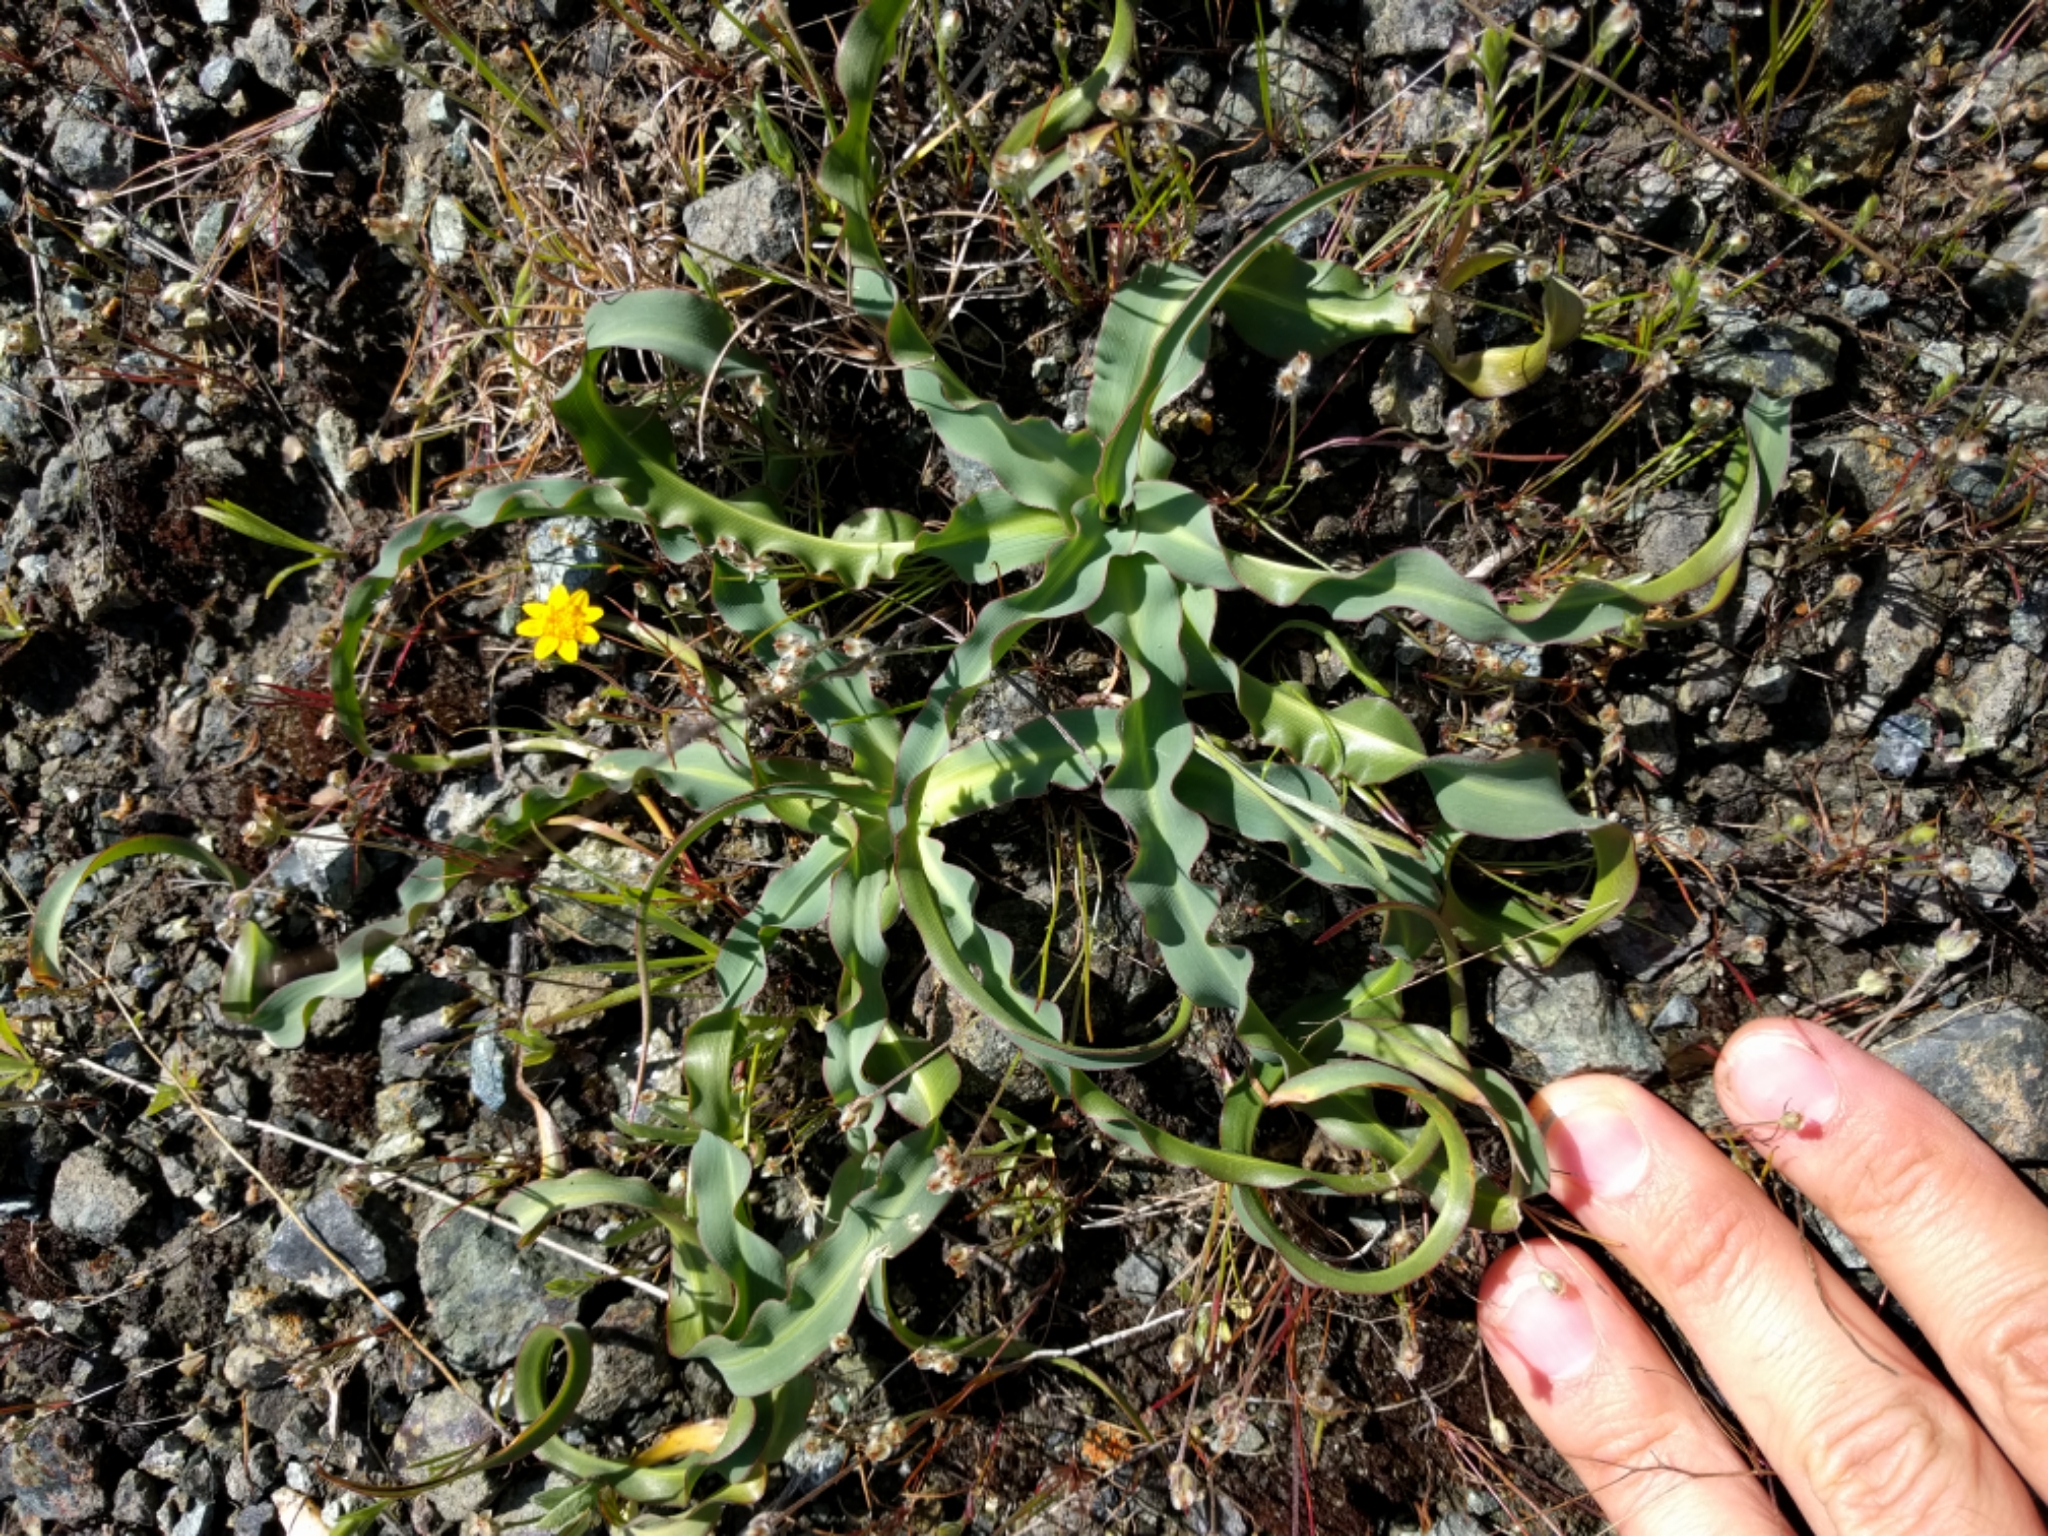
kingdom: Plantae
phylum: Tracheophyta
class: Liliopsida
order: Asparagales
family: Asparagaceae
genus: Chlorogalum
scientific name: Chlorogalum pomeridianum
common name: Amole
